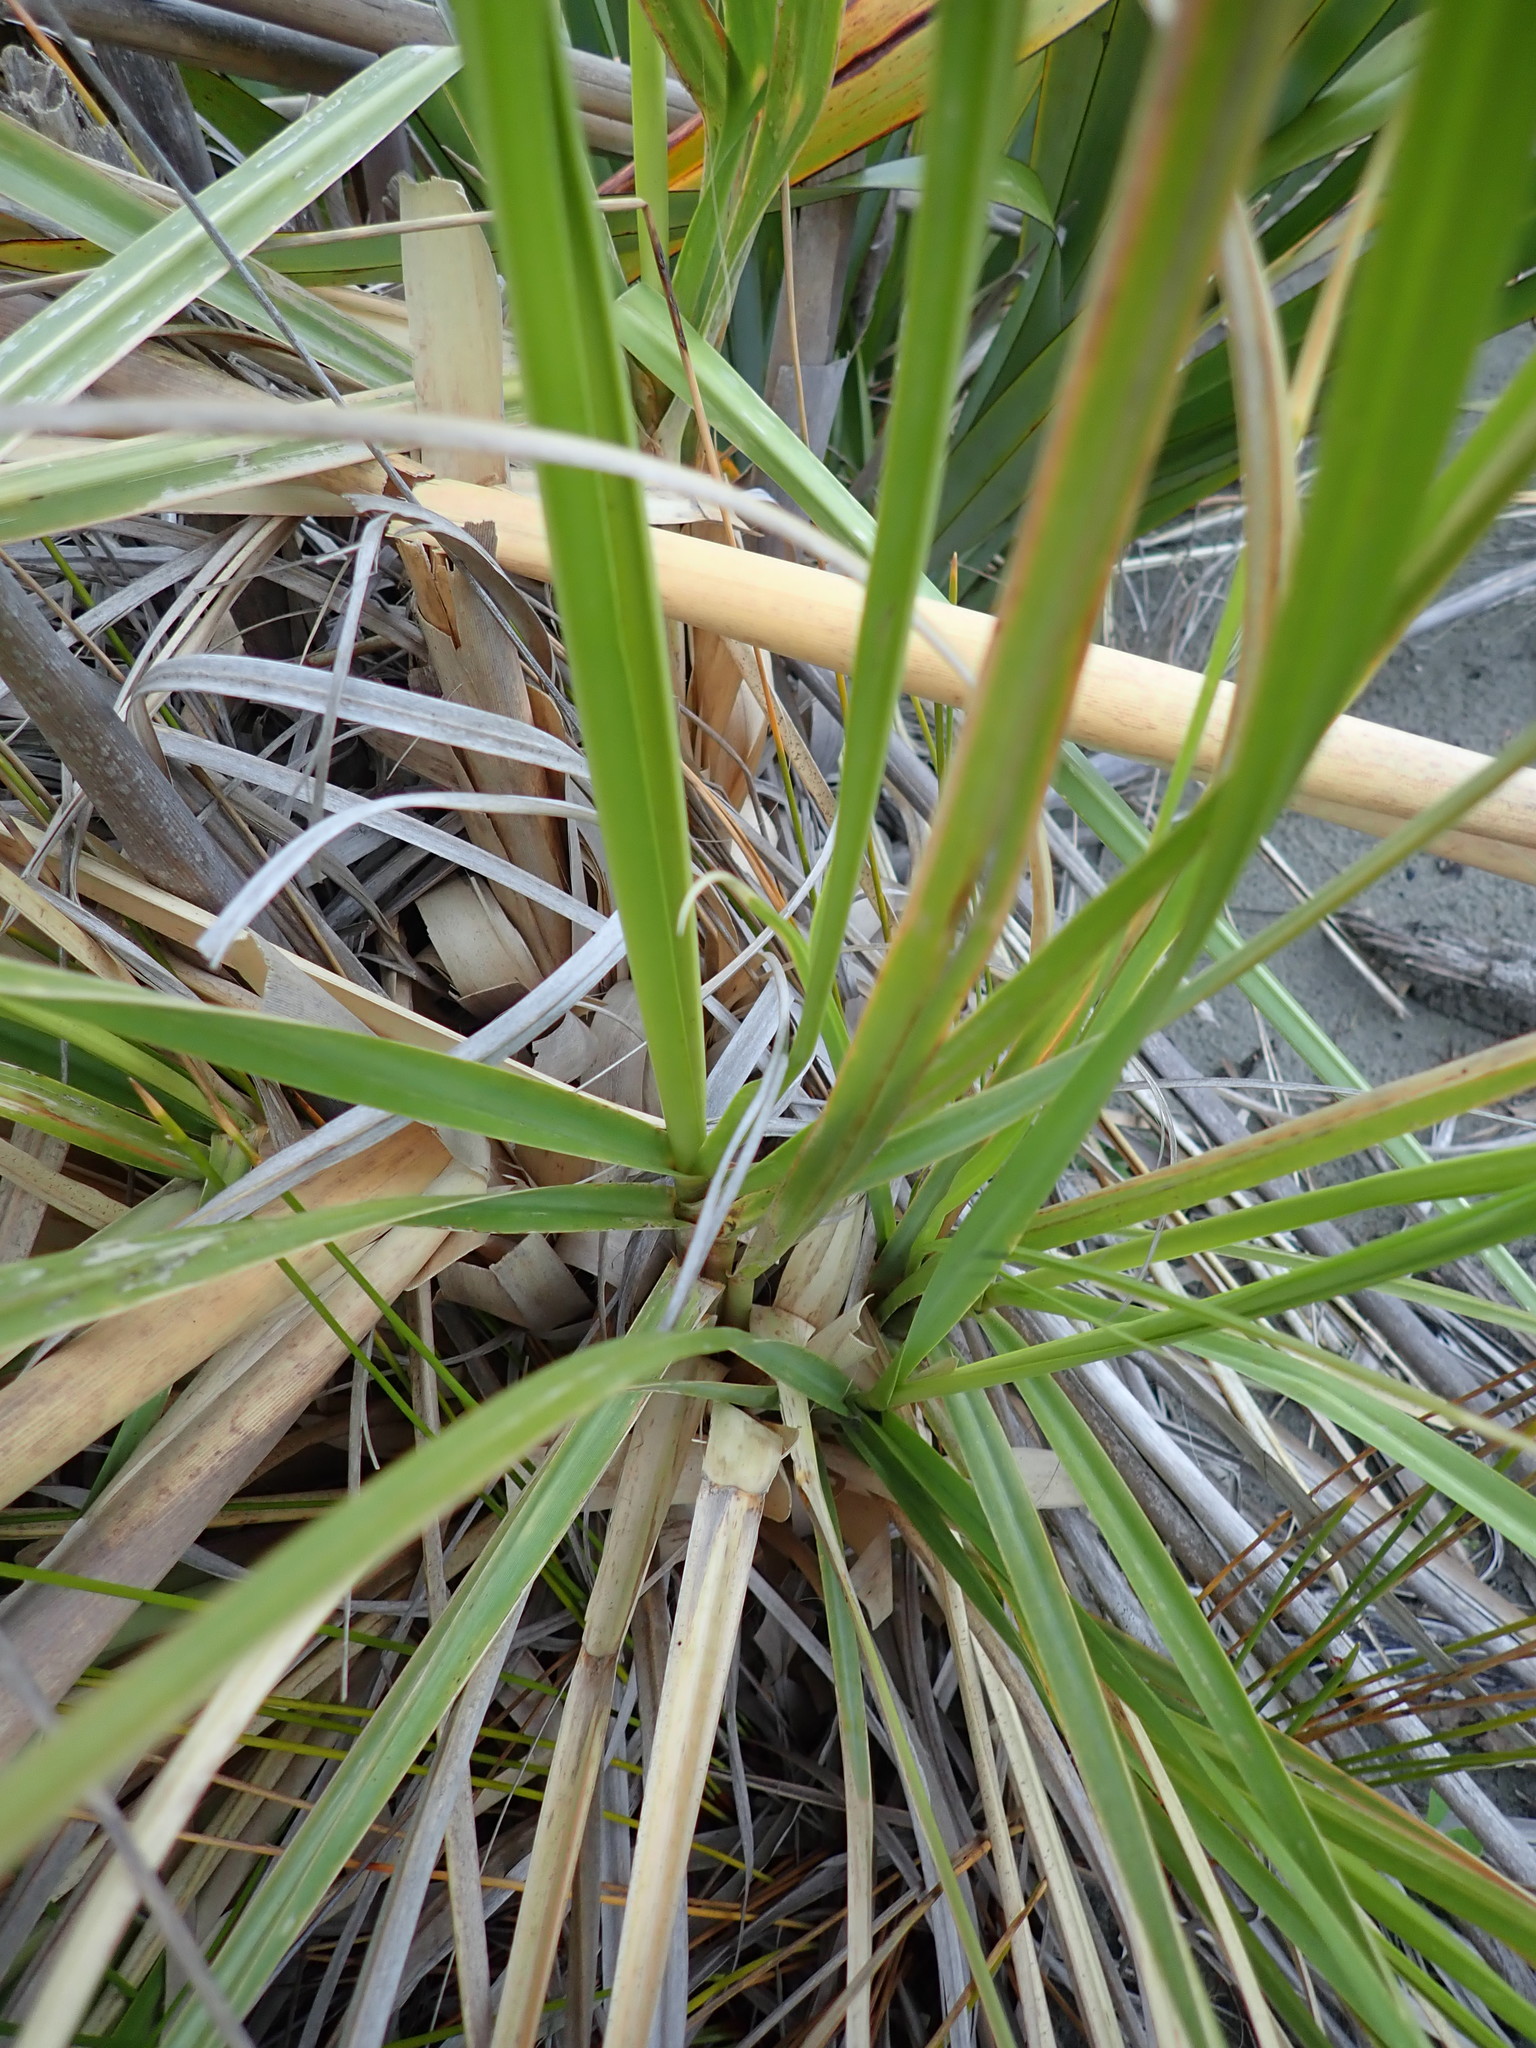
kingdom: Plantae
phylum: Tracheophyta
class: Liliopsida
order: Poales
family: Poaceae
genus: Cortaderia
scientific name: Cortaderia selloana
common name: Uruguayan pampas grass
